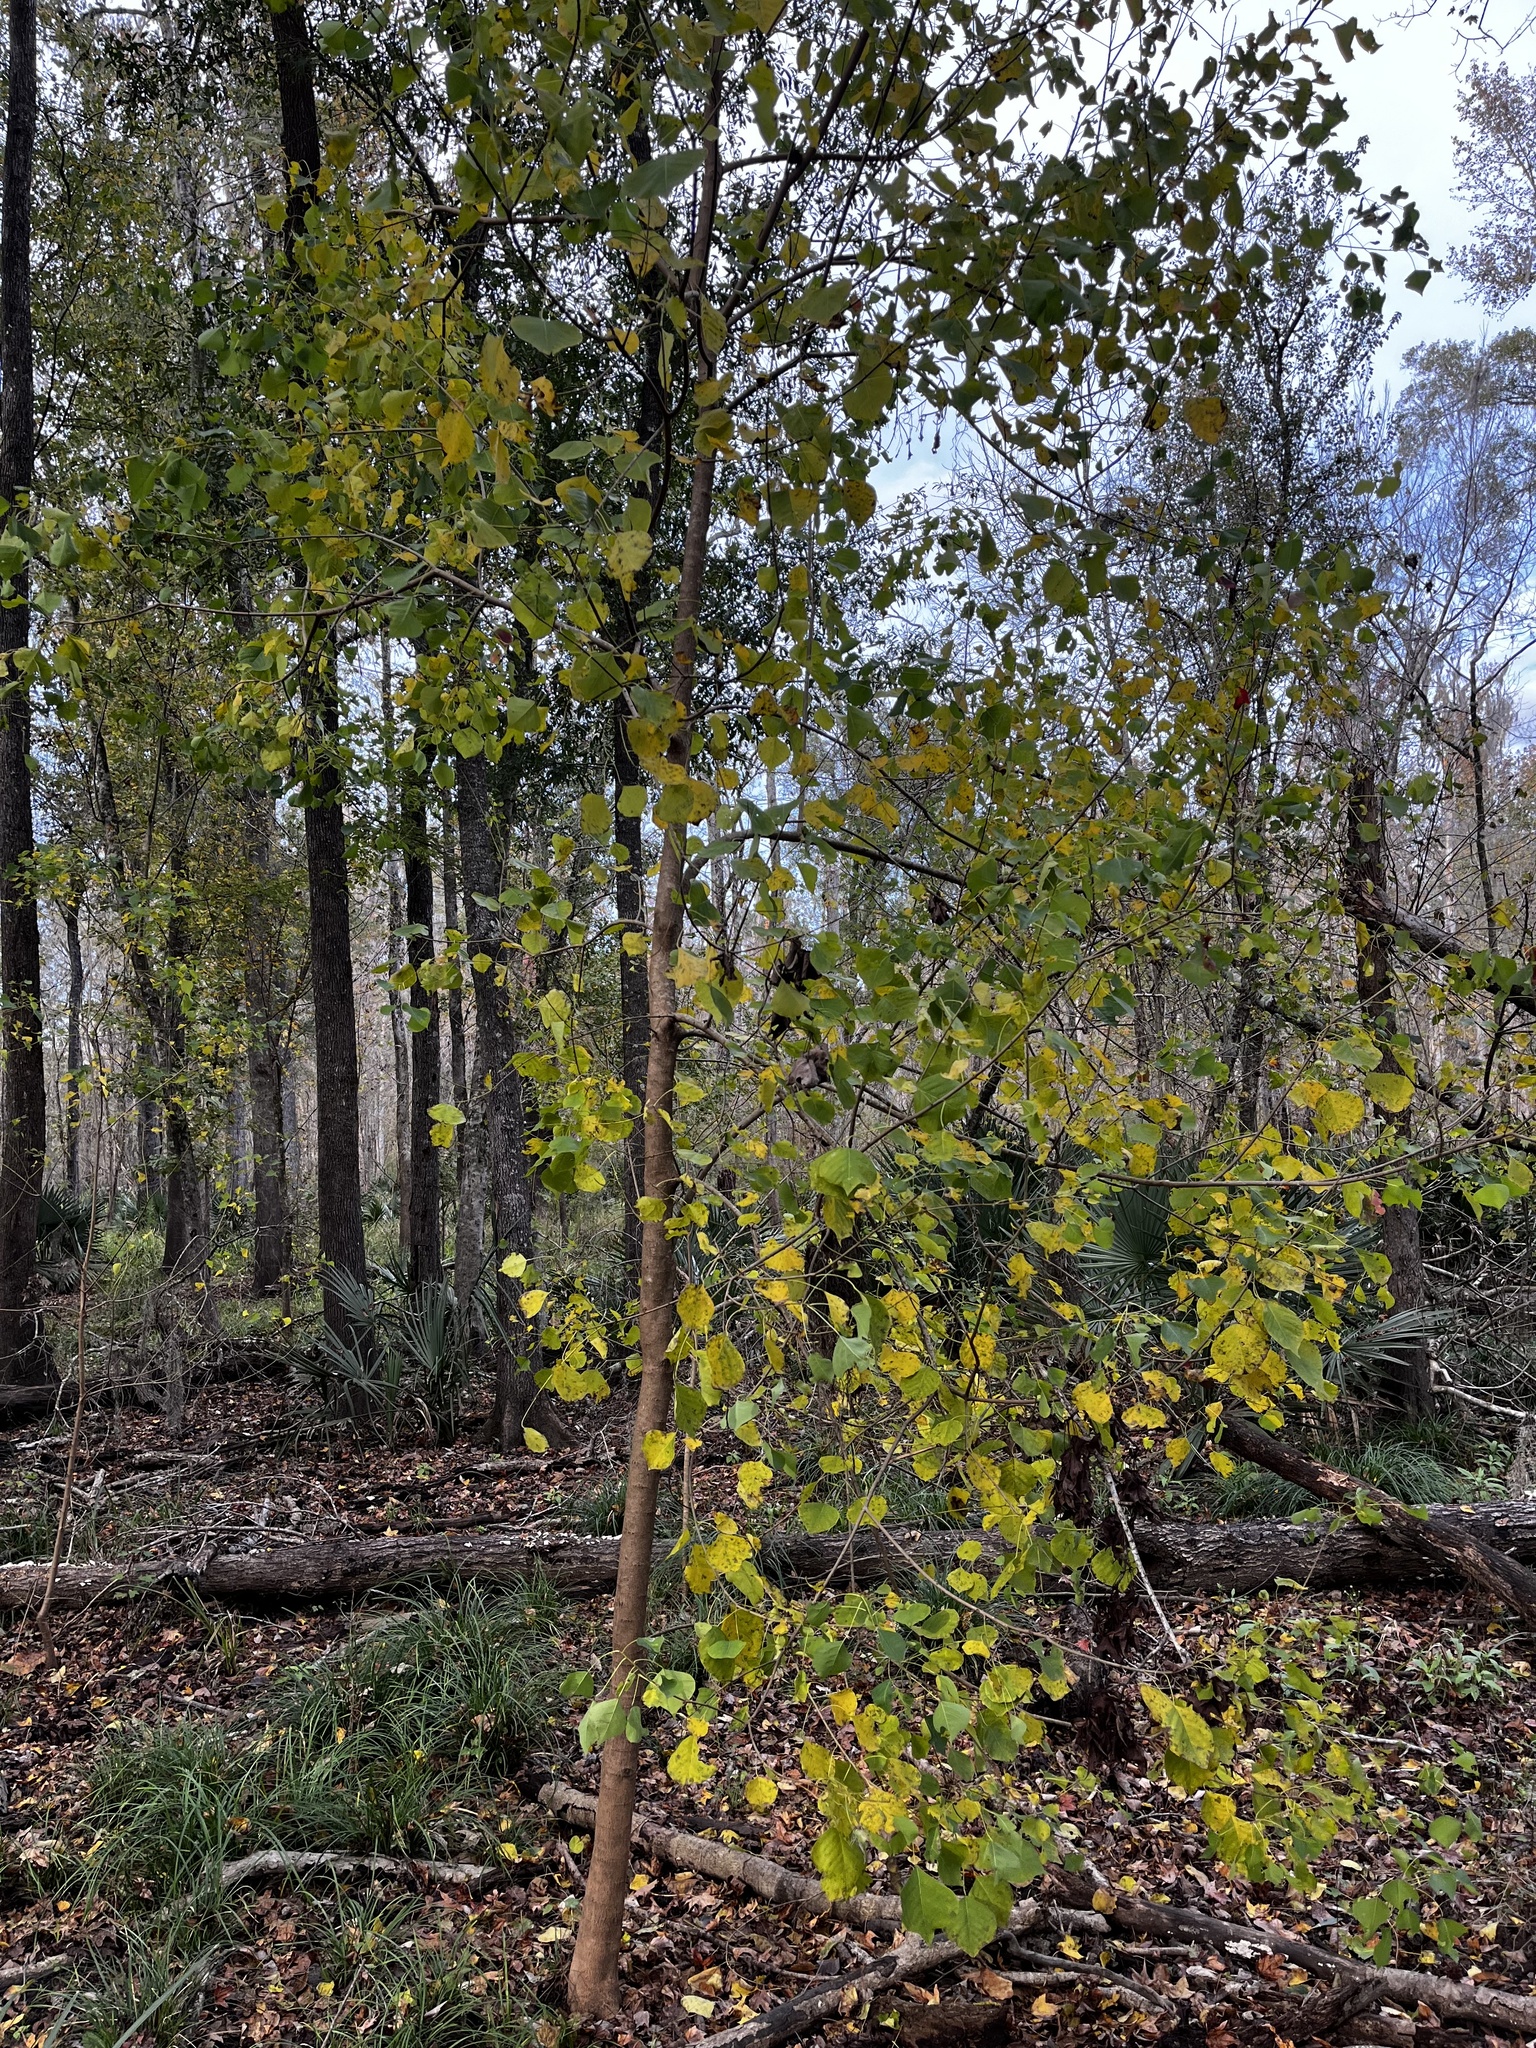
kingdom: Plantae
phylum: Tracheophyta
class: Magnoliopsida
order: Malpighiales
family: Euphorbiaceae
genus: Triadica
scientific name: Triadica sebifera
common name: Chinese tallow
